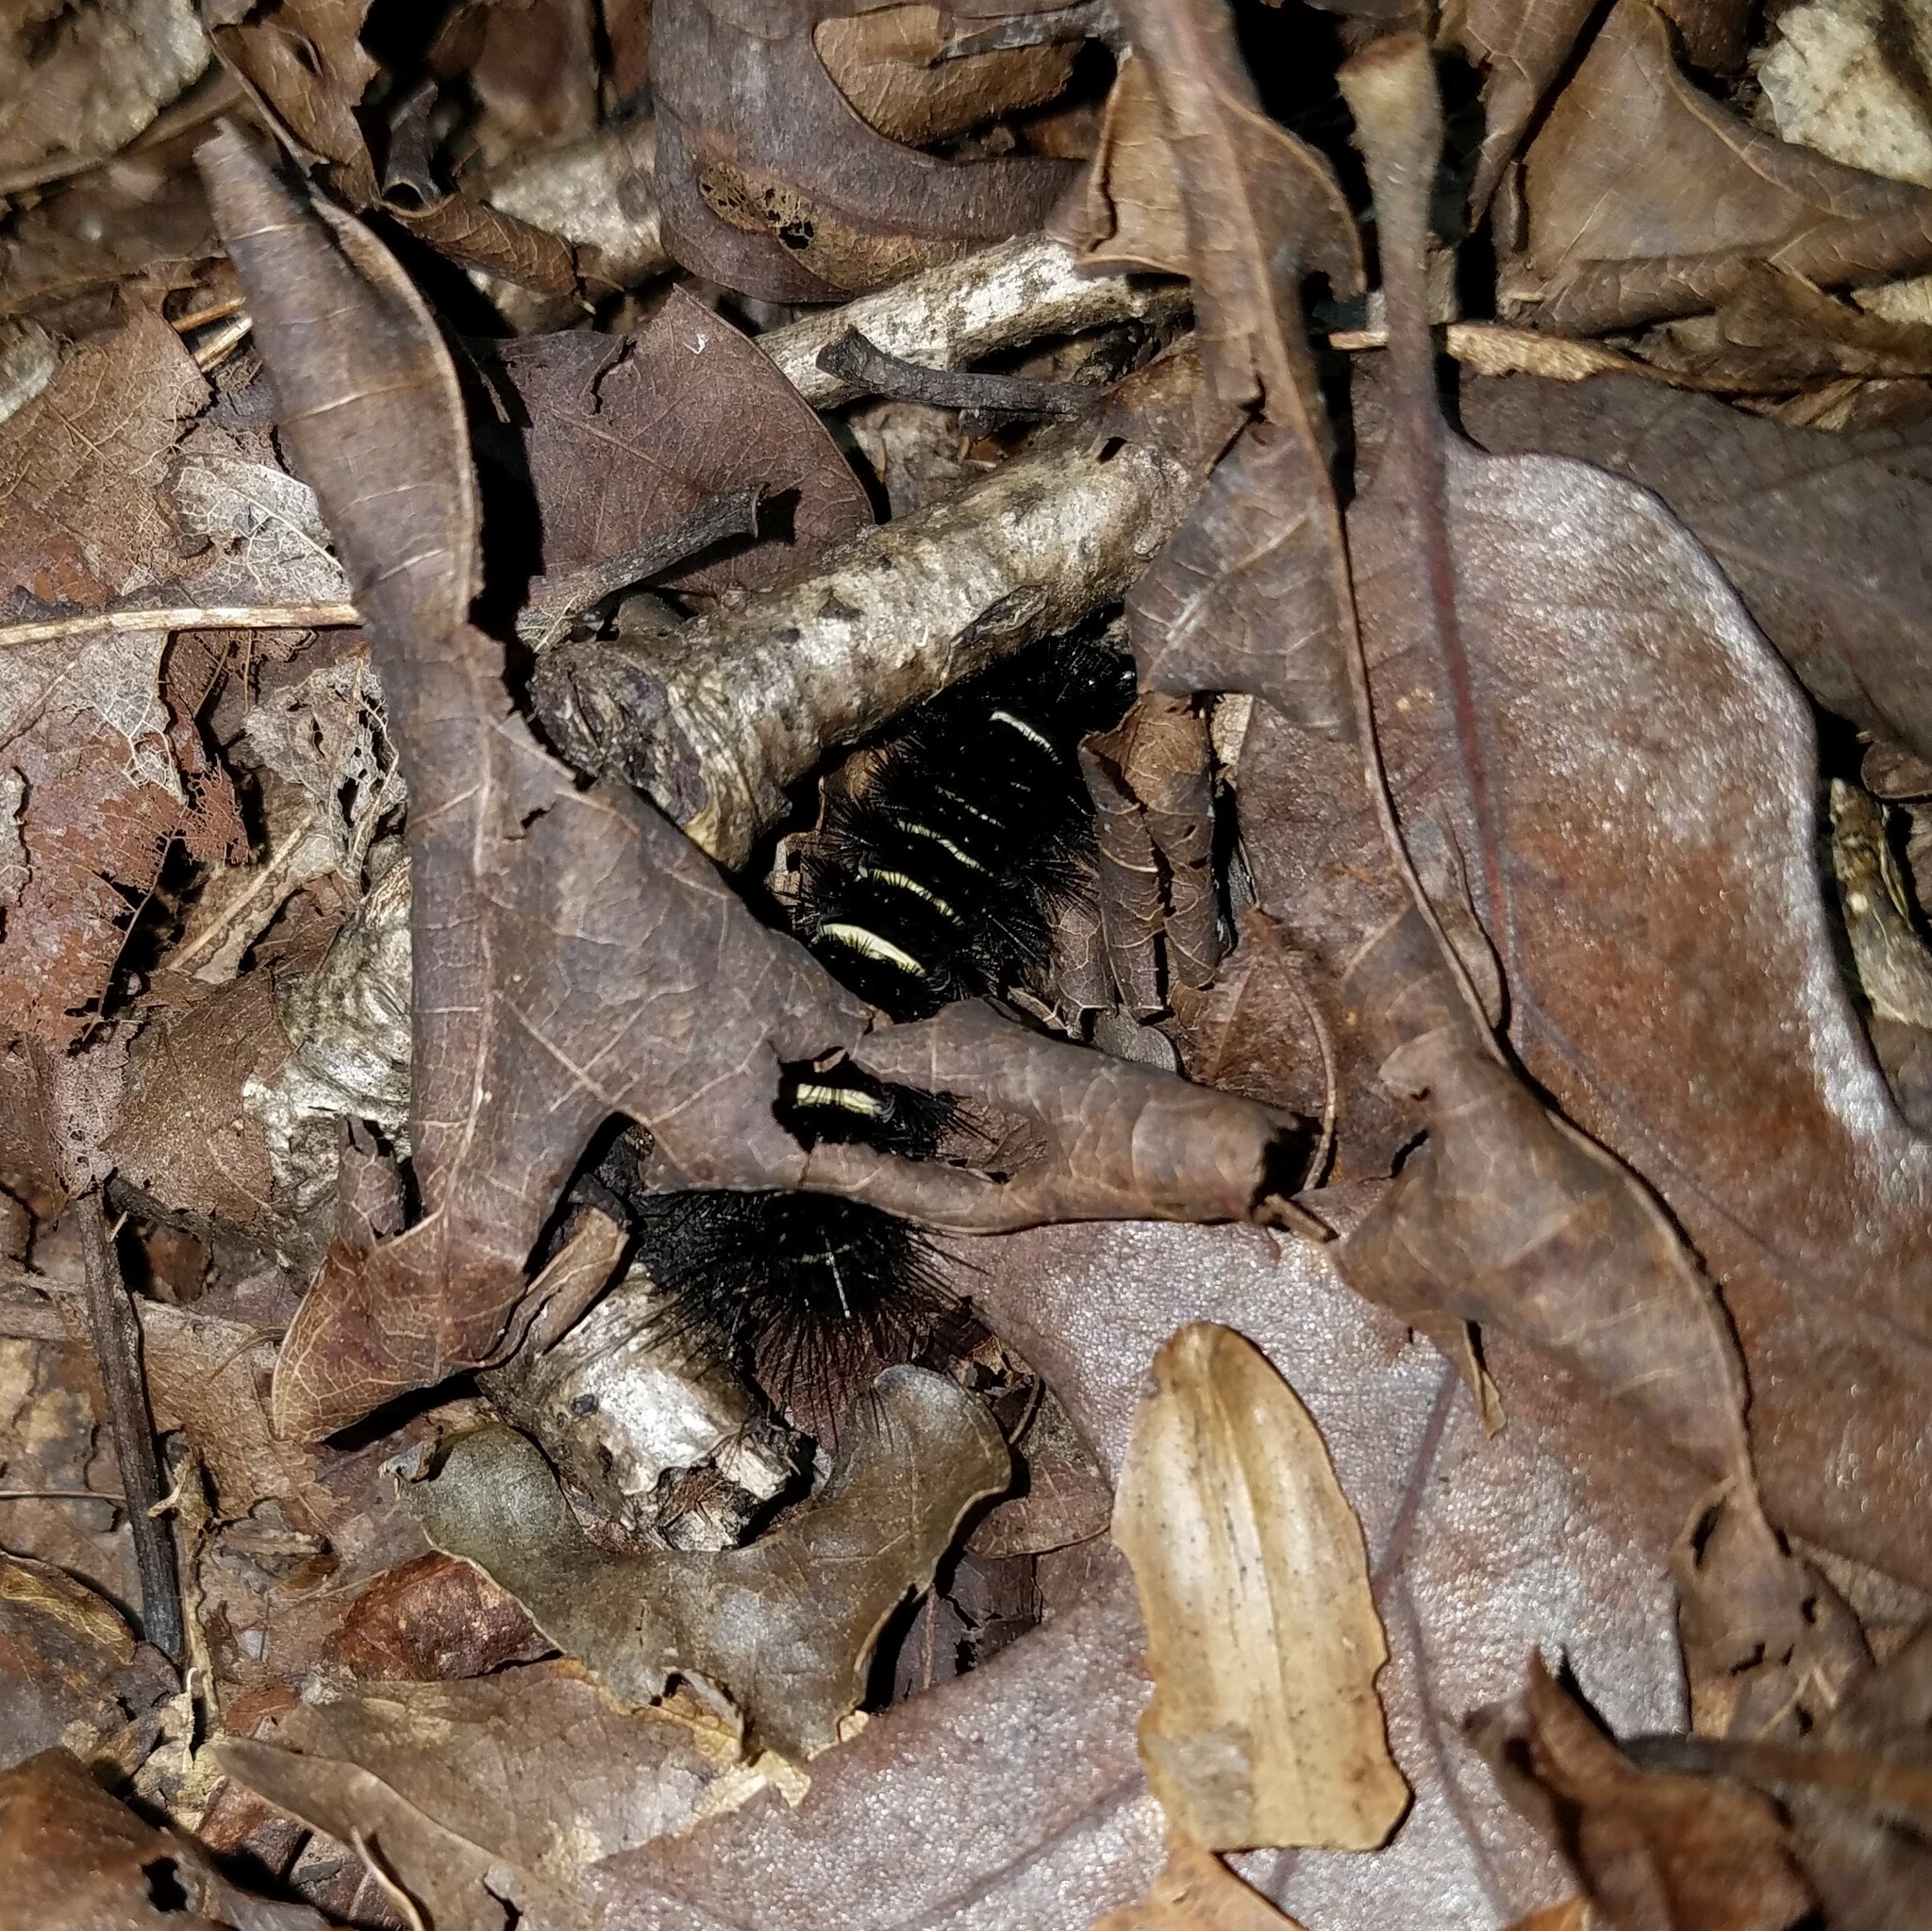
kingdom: Animalia
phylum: Arthropoda
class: Insecta
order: Lepidoptera
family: Erebidae
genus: Spilosoma
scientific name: Spilosoma congrua
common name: Agreeable tiger moth
